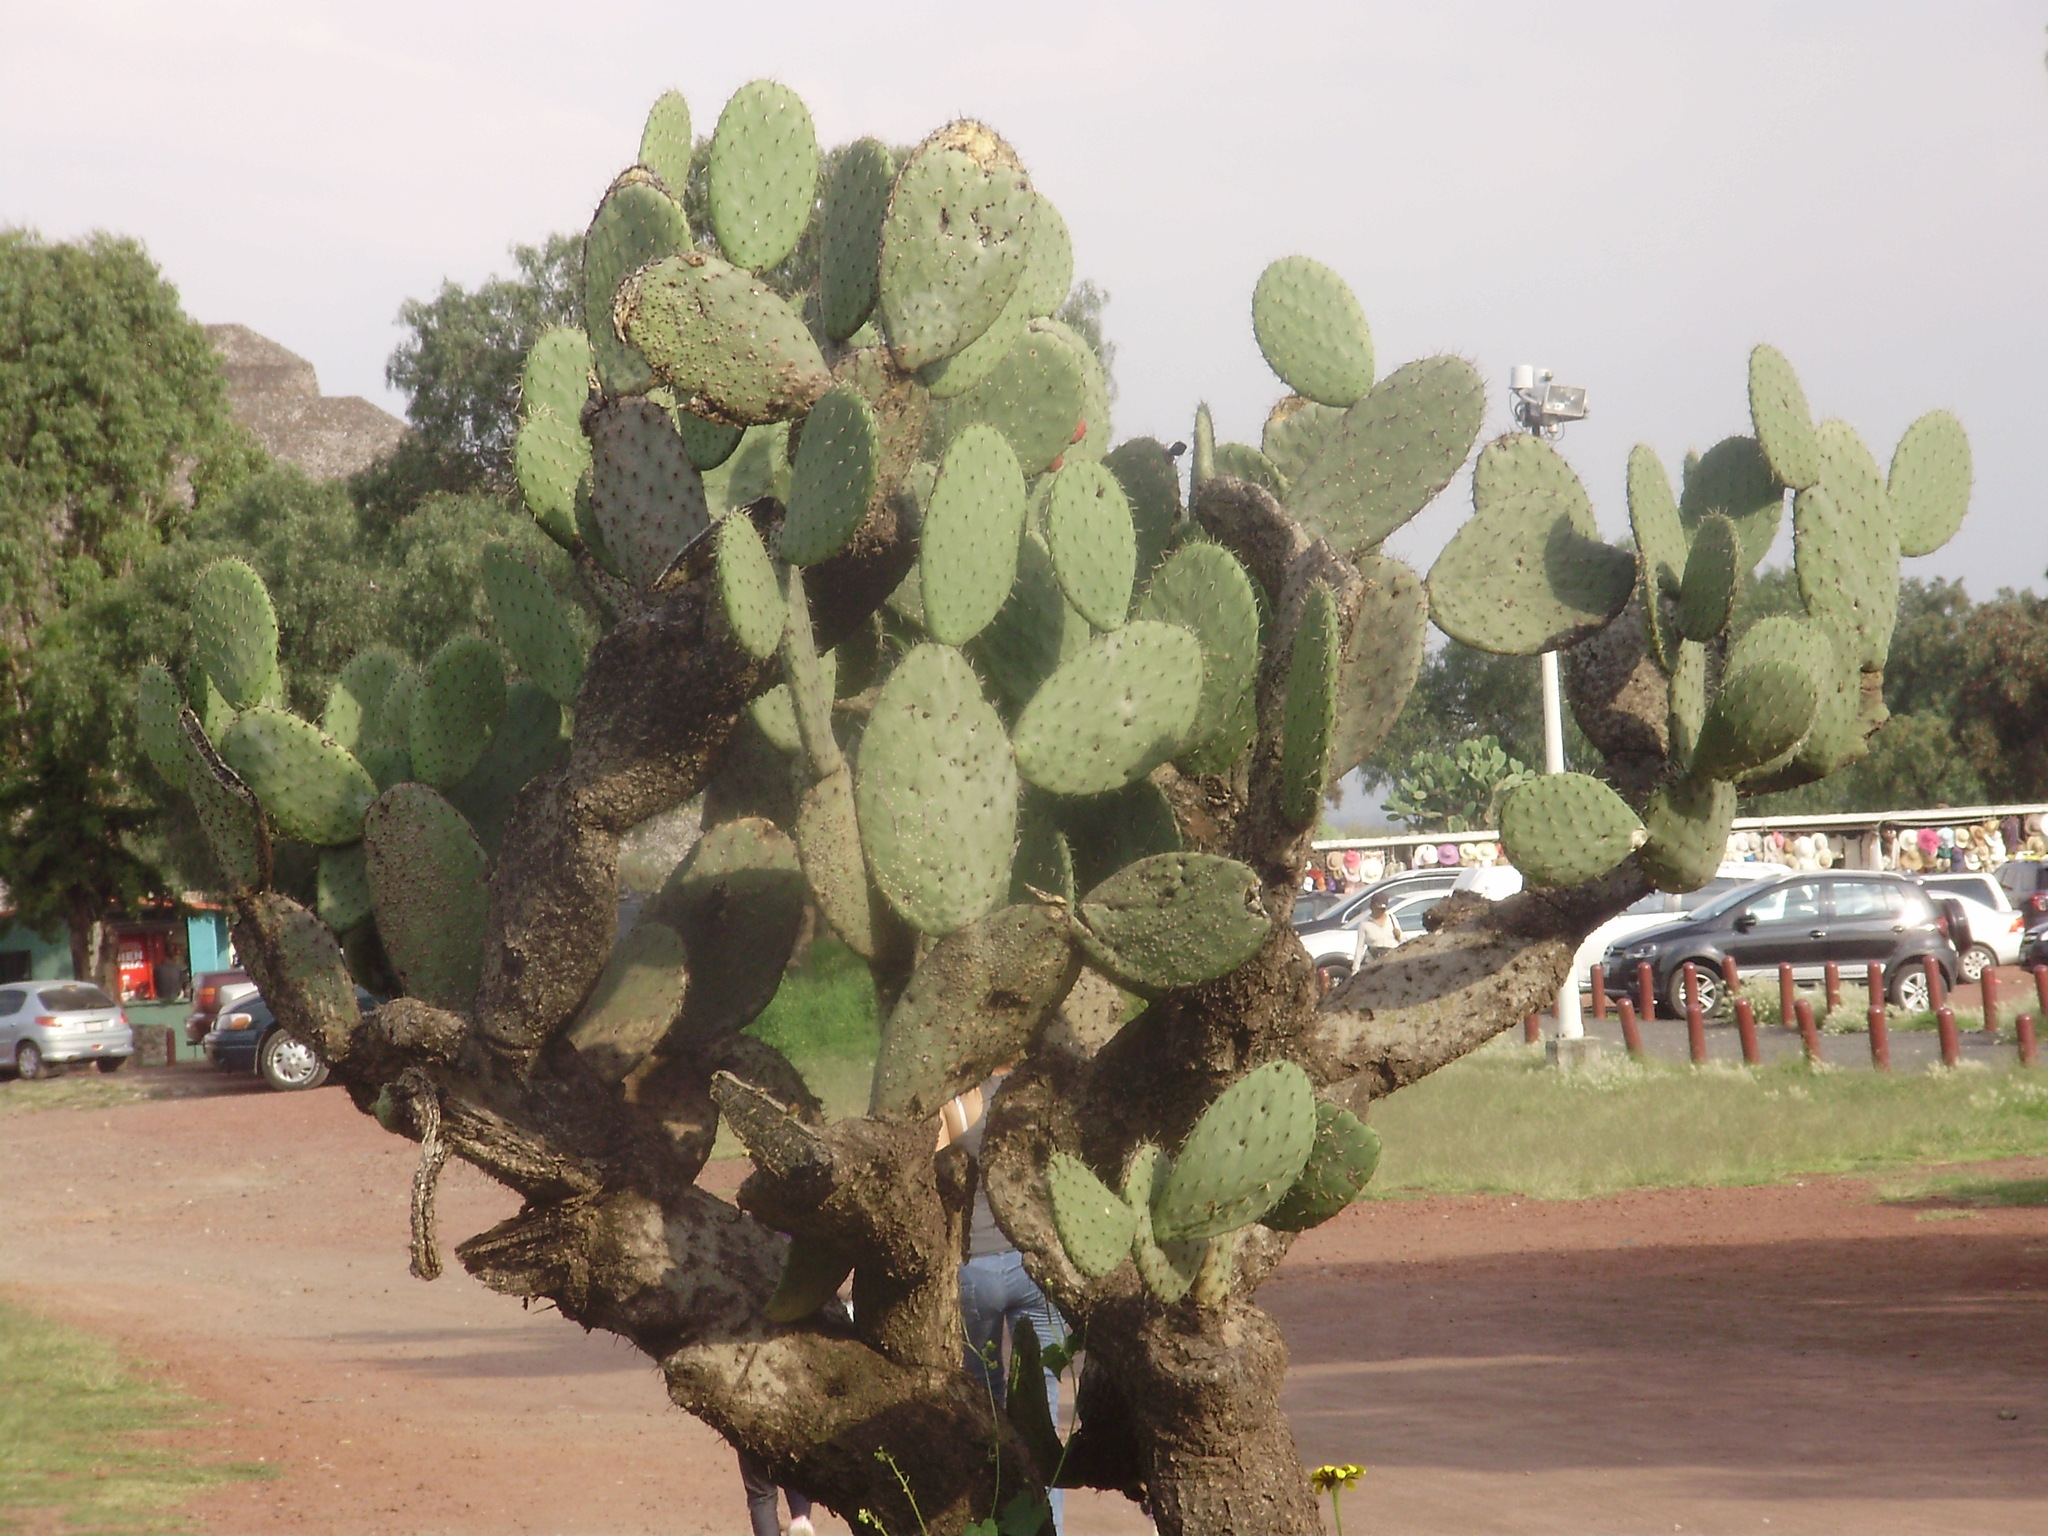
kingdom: Plantae
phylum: Tracheophyta
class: Magnoliopsida
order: Caryophyllales
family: Cactaceae
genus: Opuntia
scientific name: Opuntia streptacantha
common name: Gracemere-pear
